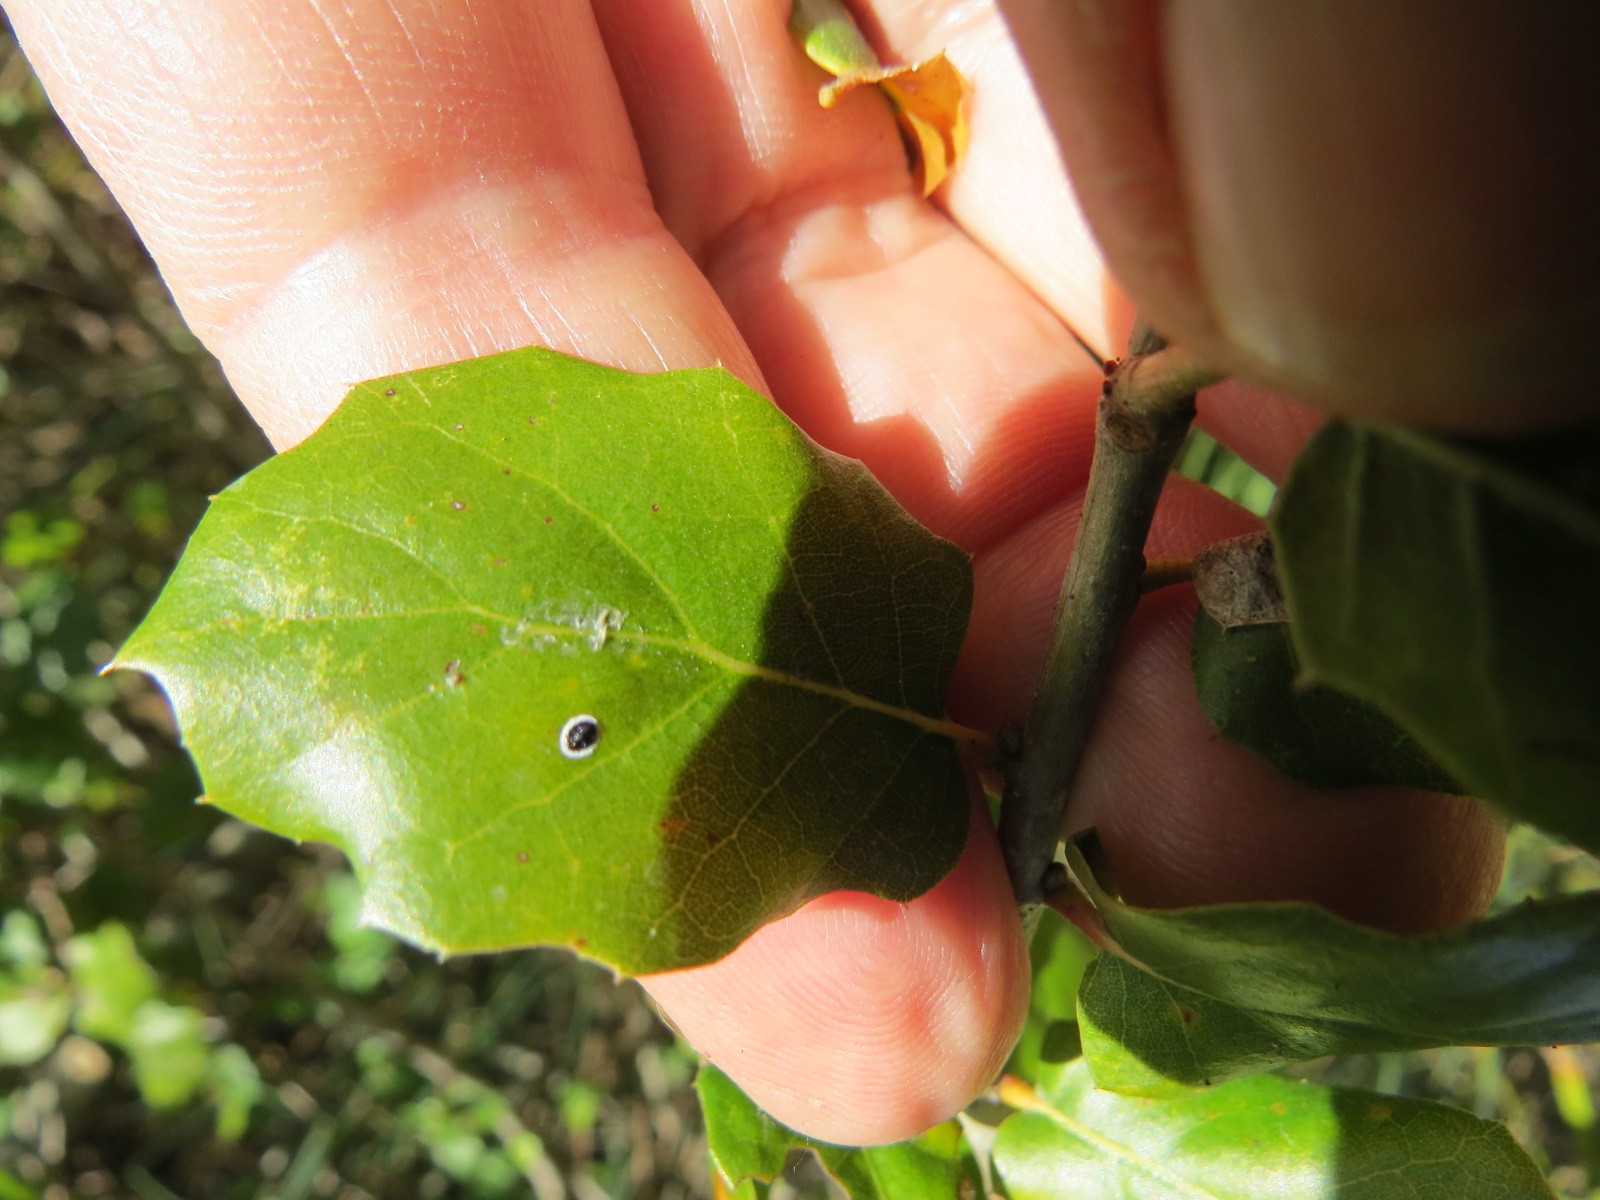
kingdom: Animalia
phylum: Arthropoda
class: Insecta
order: Hemiptera
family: Aleyrodidae
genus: Tetraleurodes
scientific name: Tetraleurodes perileuca
